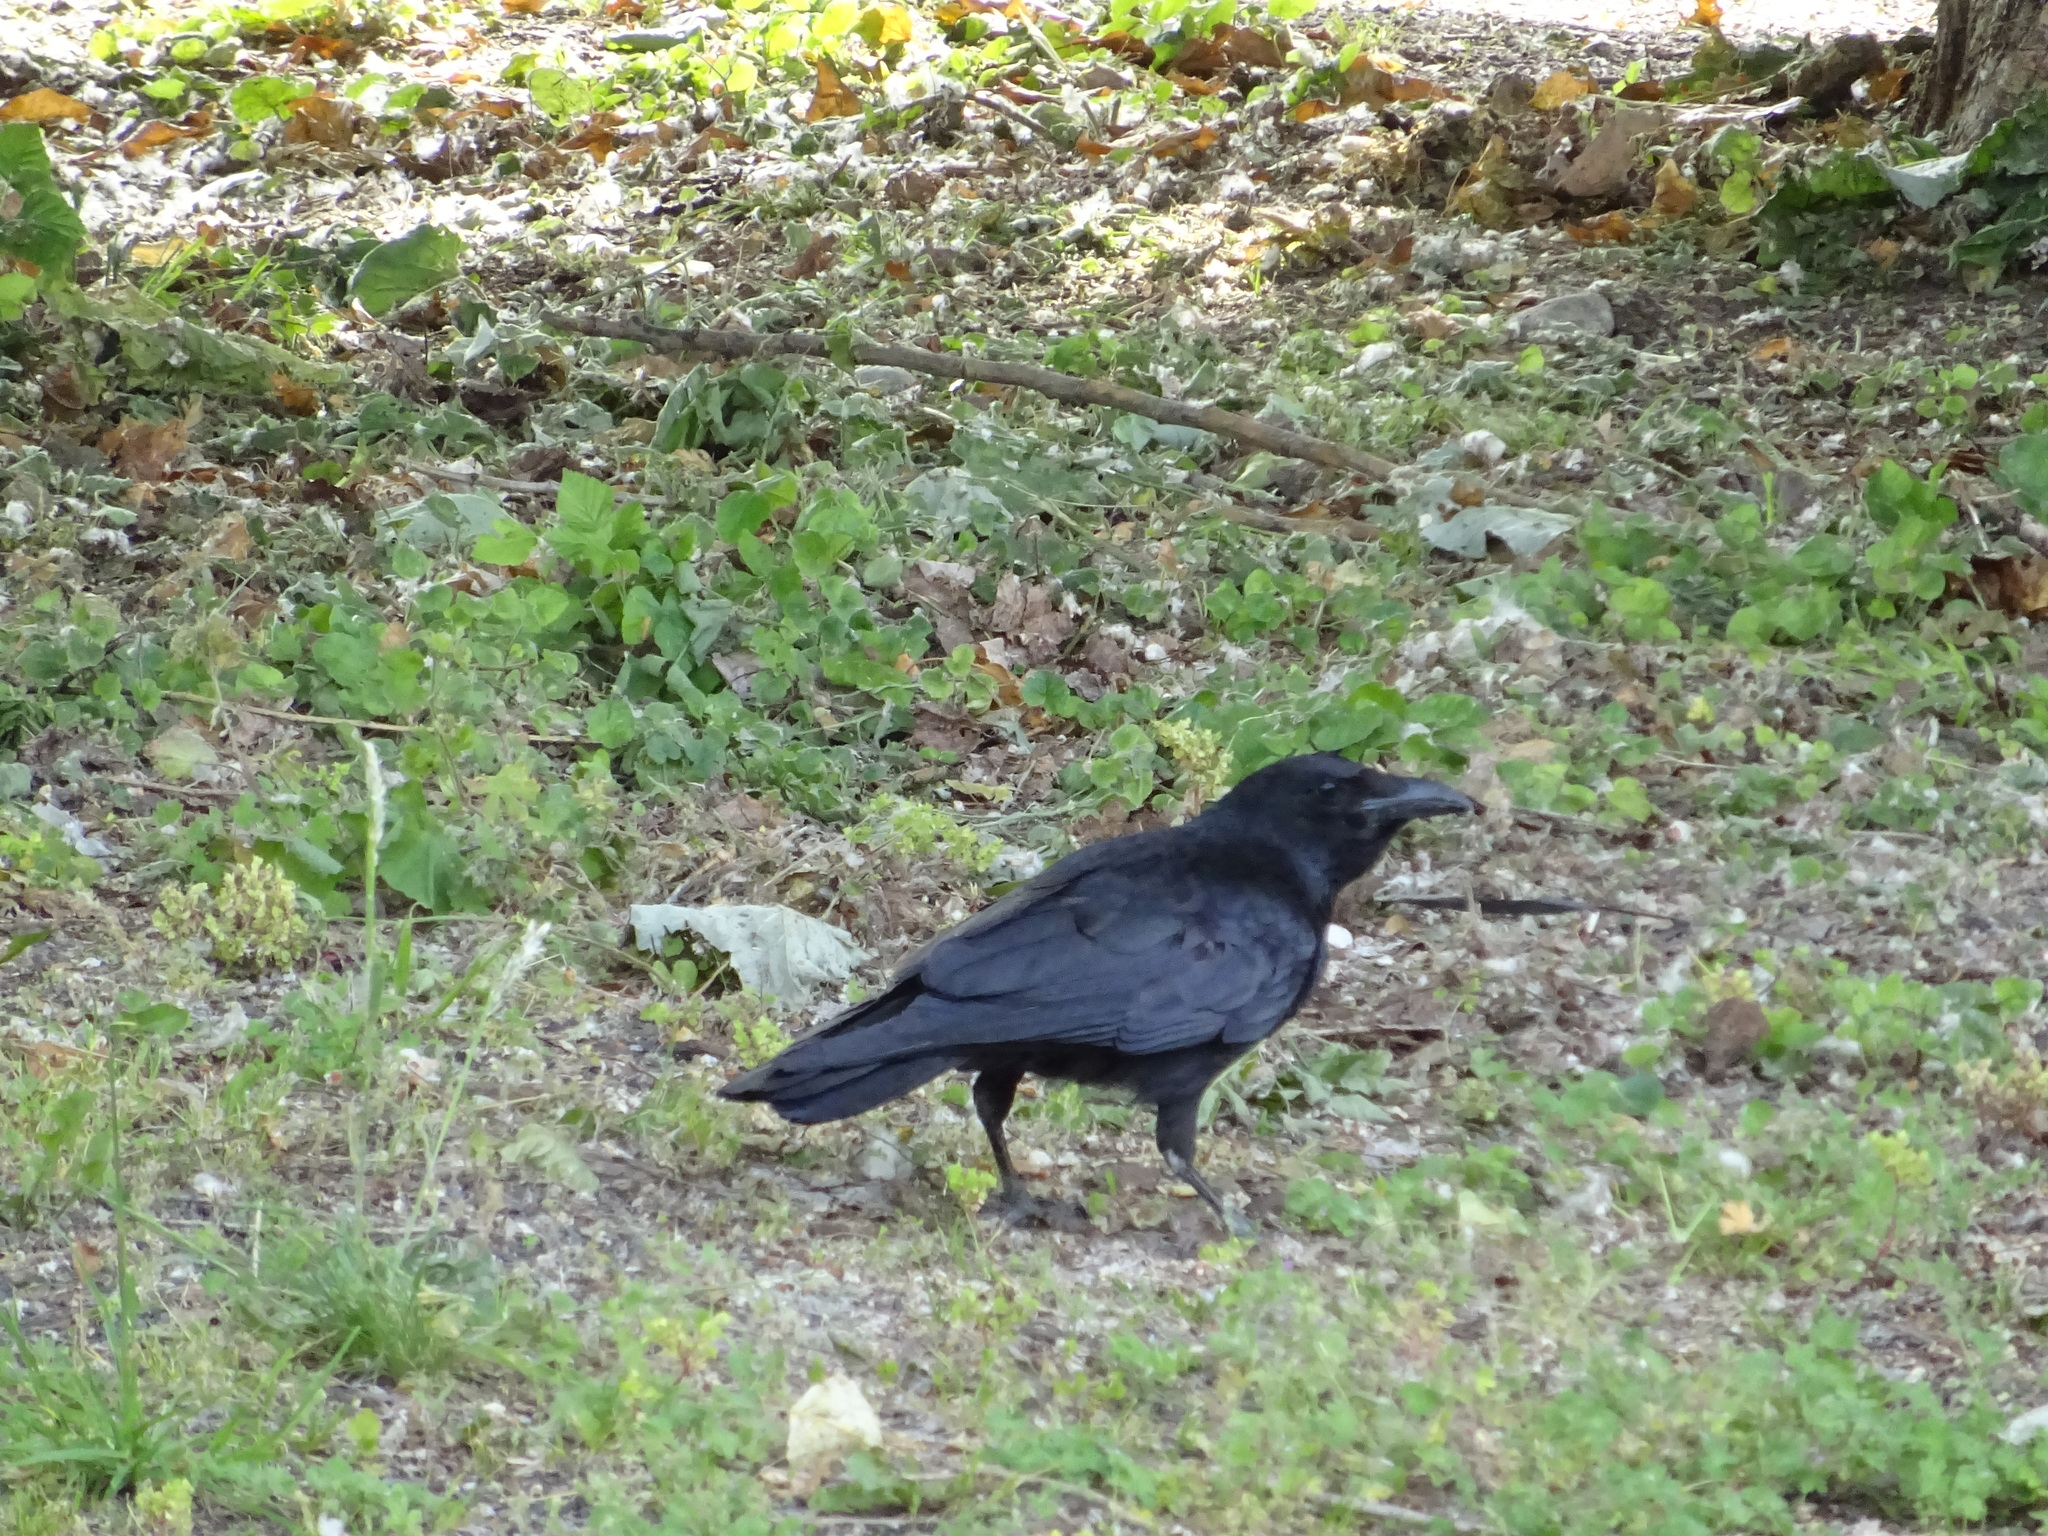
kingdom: Animalia
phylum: Chordata
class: Aves
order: Passeriformes
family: Corvidae
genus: Corvus
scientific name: Corvus corax
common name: Common raven
